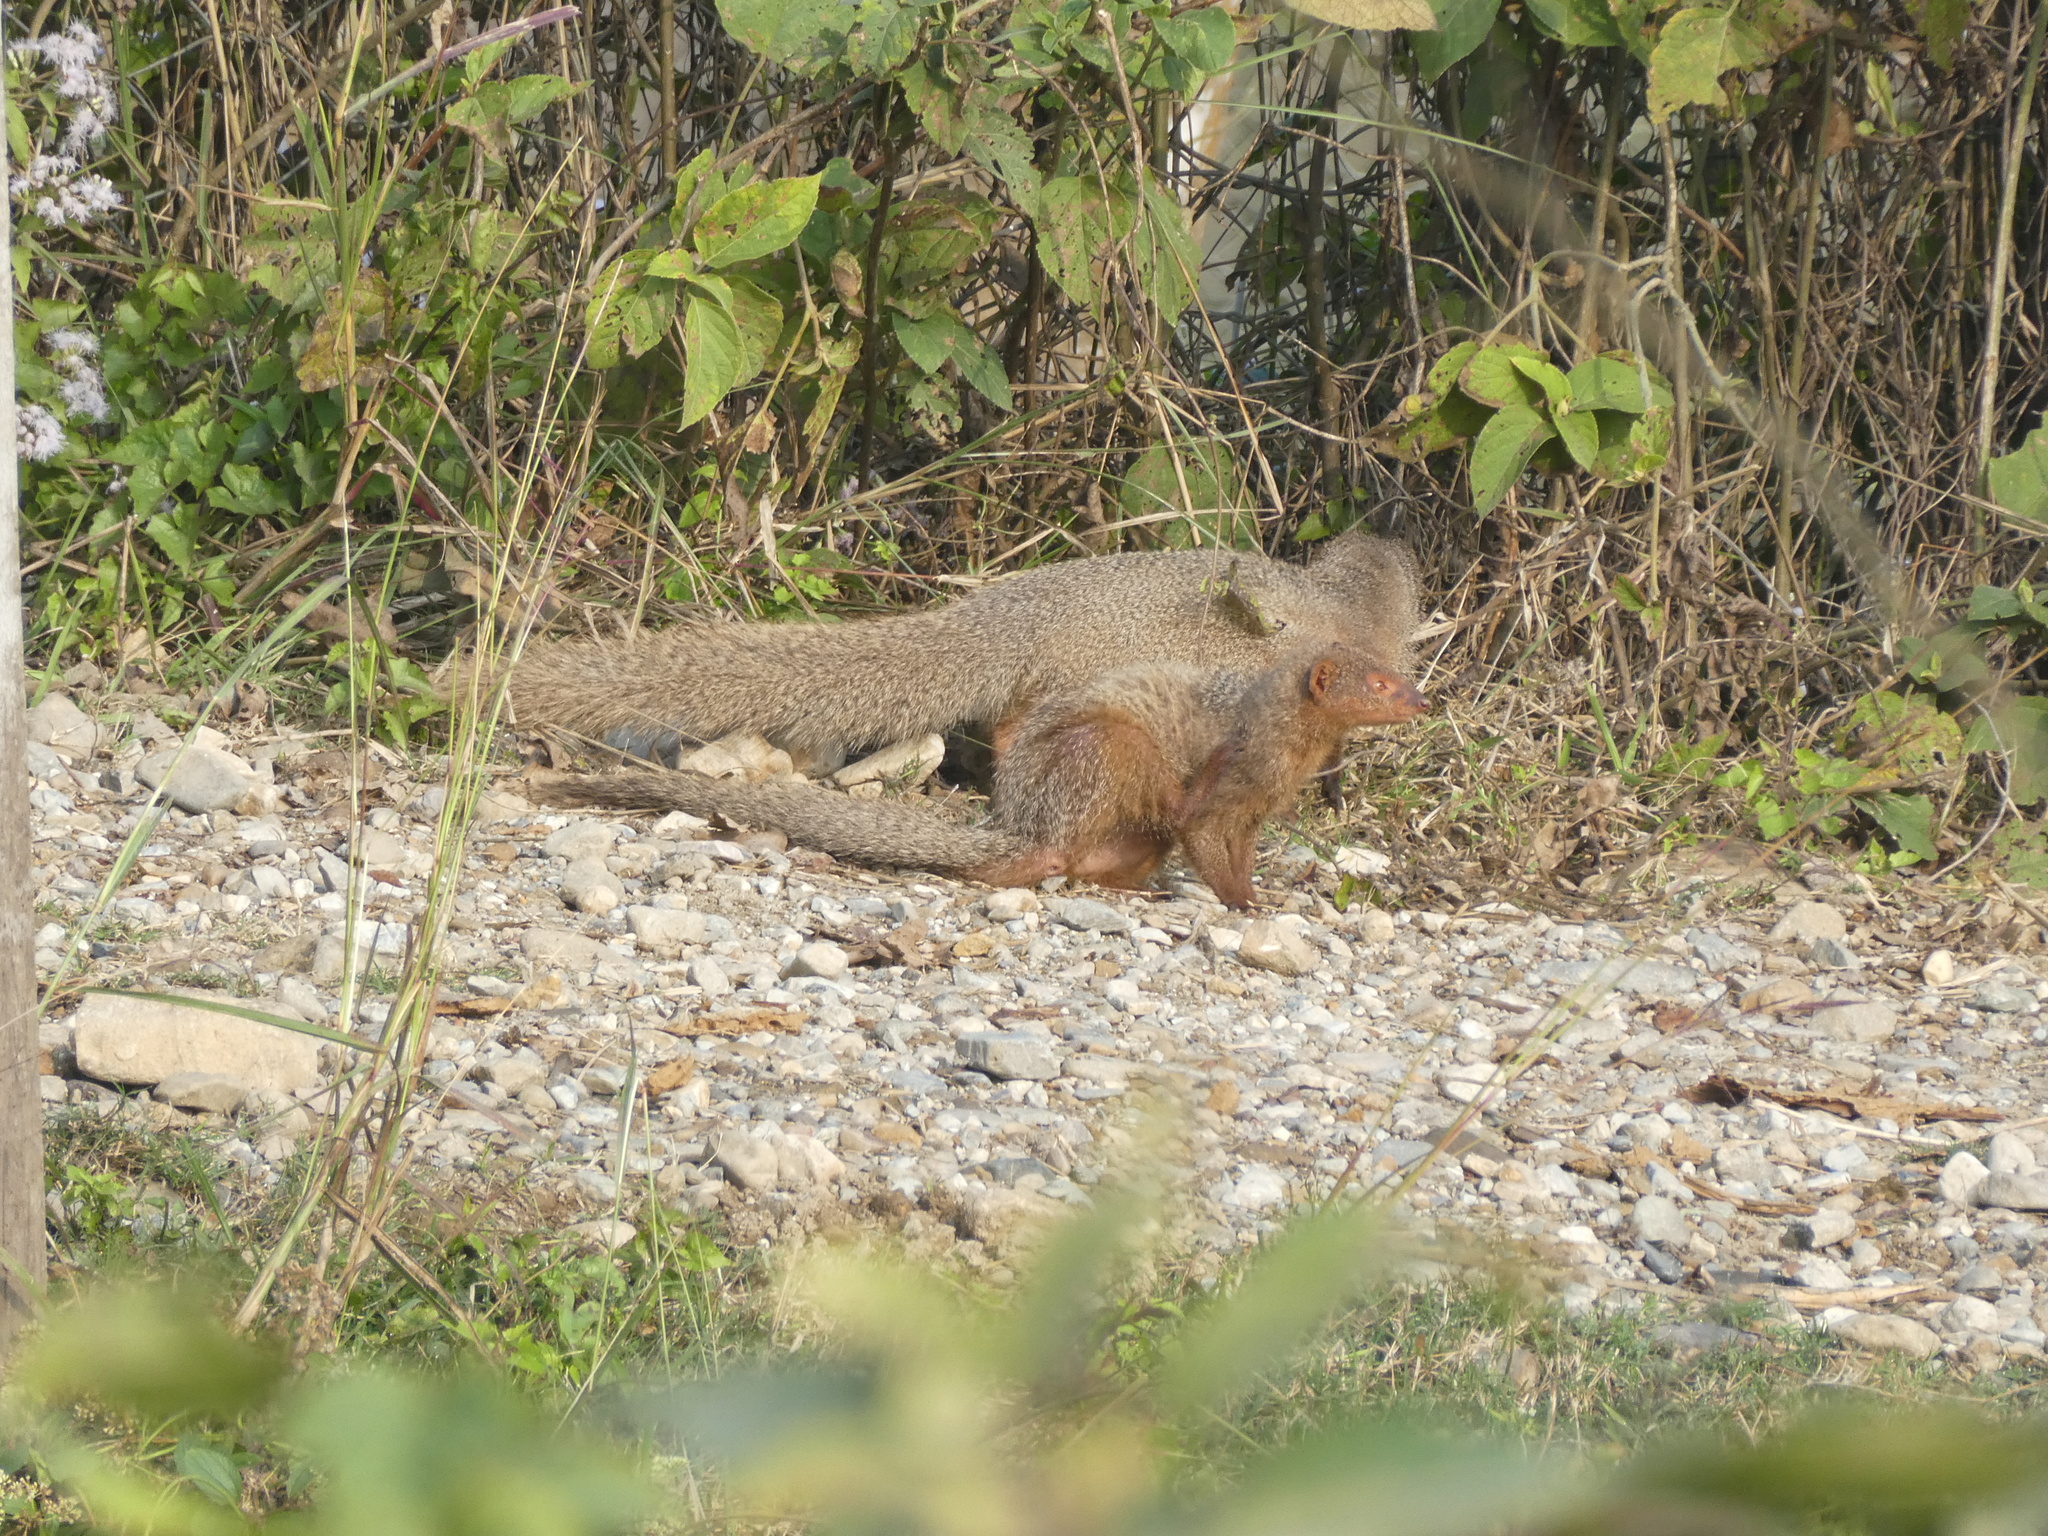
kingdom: Animalia
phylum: Chordata
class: Mammalia
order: Carnivora
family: Herpestidae
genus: Herpestes
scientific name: Herpestes edwardsi
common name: Indian gray mongoose
